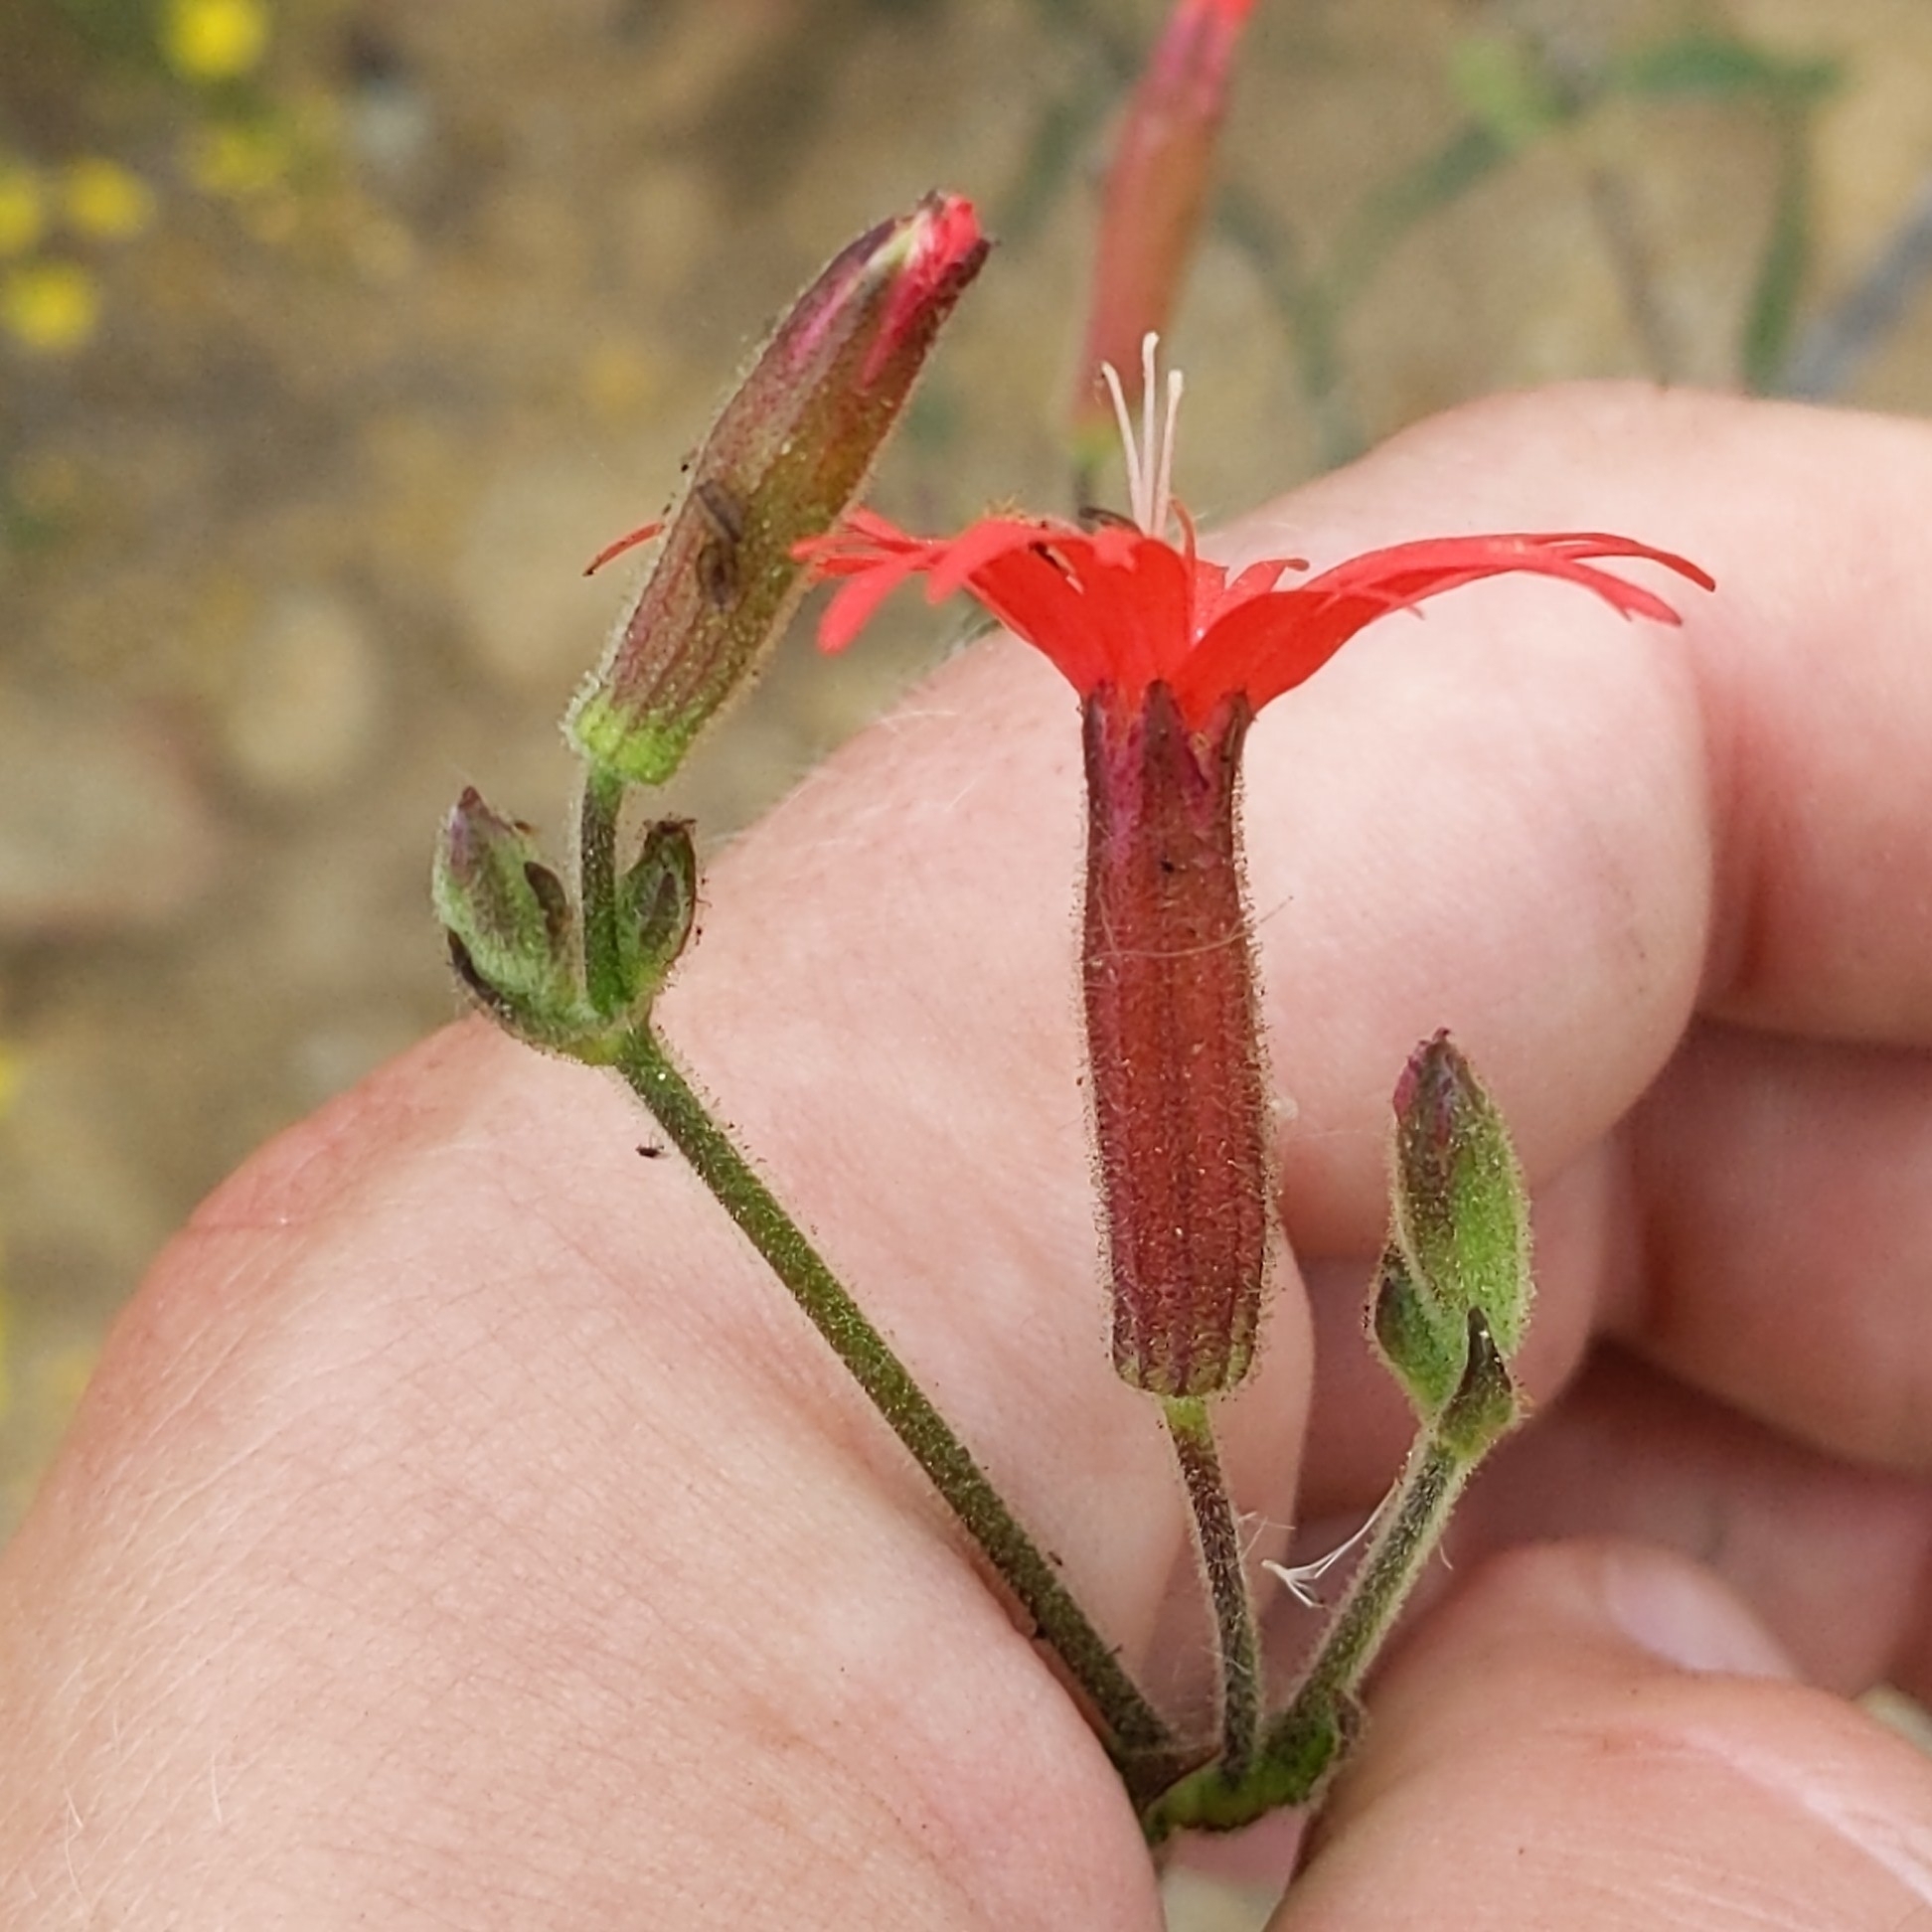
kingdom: Plantae
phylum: Tracheophyta
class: Magnoliopsida
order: Caryophyllales
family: Caryophyllaceae
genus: Silene
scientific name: Silene laciniata
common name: Indian-pink
